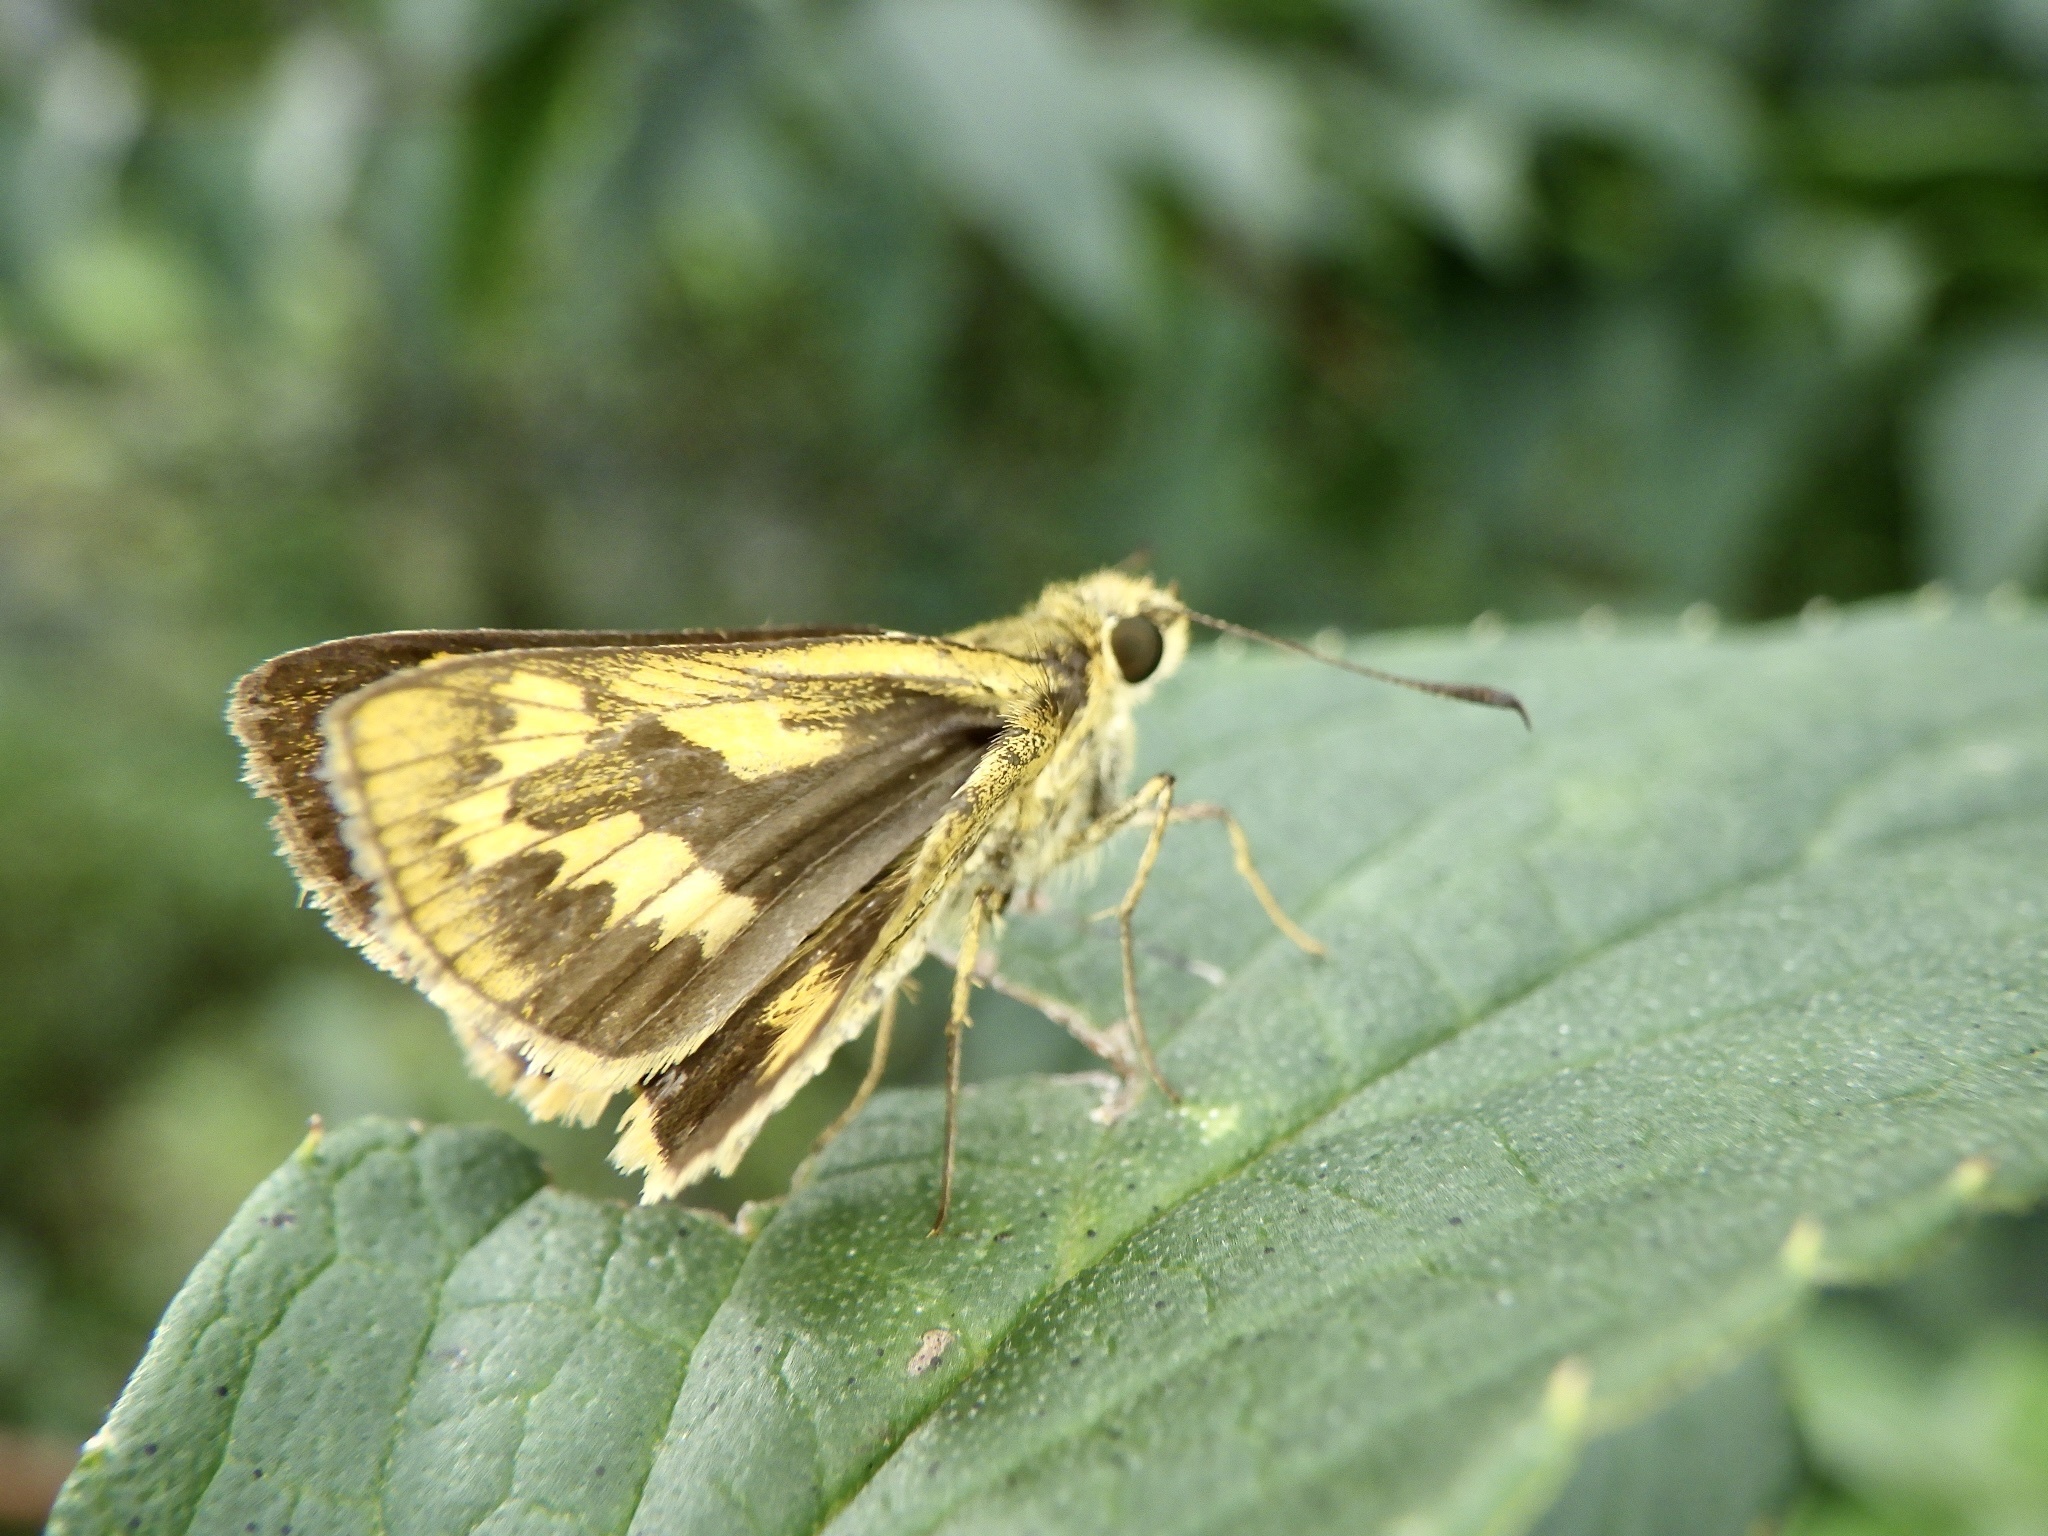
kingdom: Animalia
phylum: Arthropoda
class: Insecta
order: Lepidoptera
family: Hesperiidae
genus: Potanthus
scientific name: Potanthus flava
